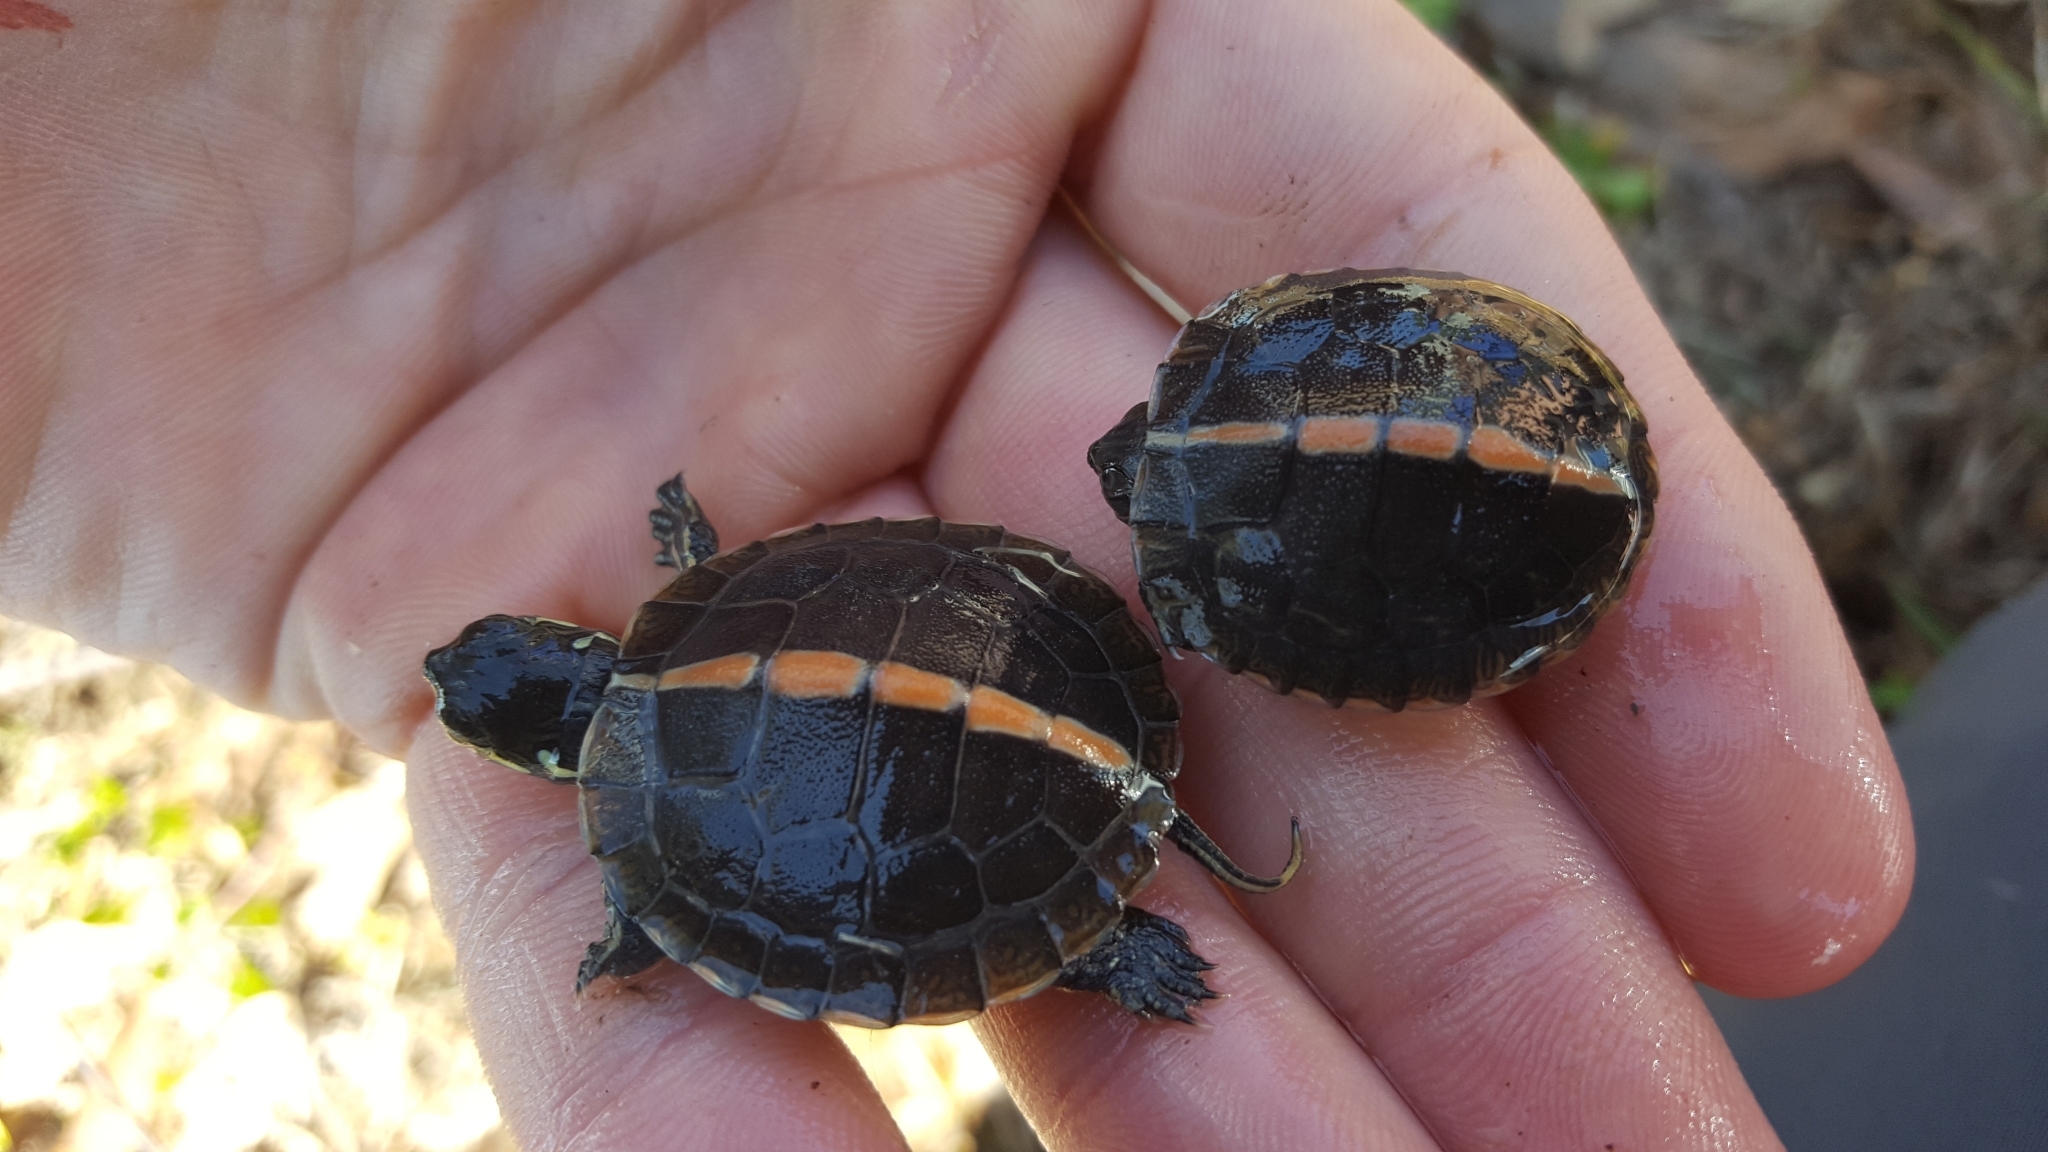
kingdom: Animalia
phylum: Chordata
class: Testudines
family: Emydidae
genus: Chrysemys
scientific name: Chrysemys dorsalis
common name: Southern painted turtle
